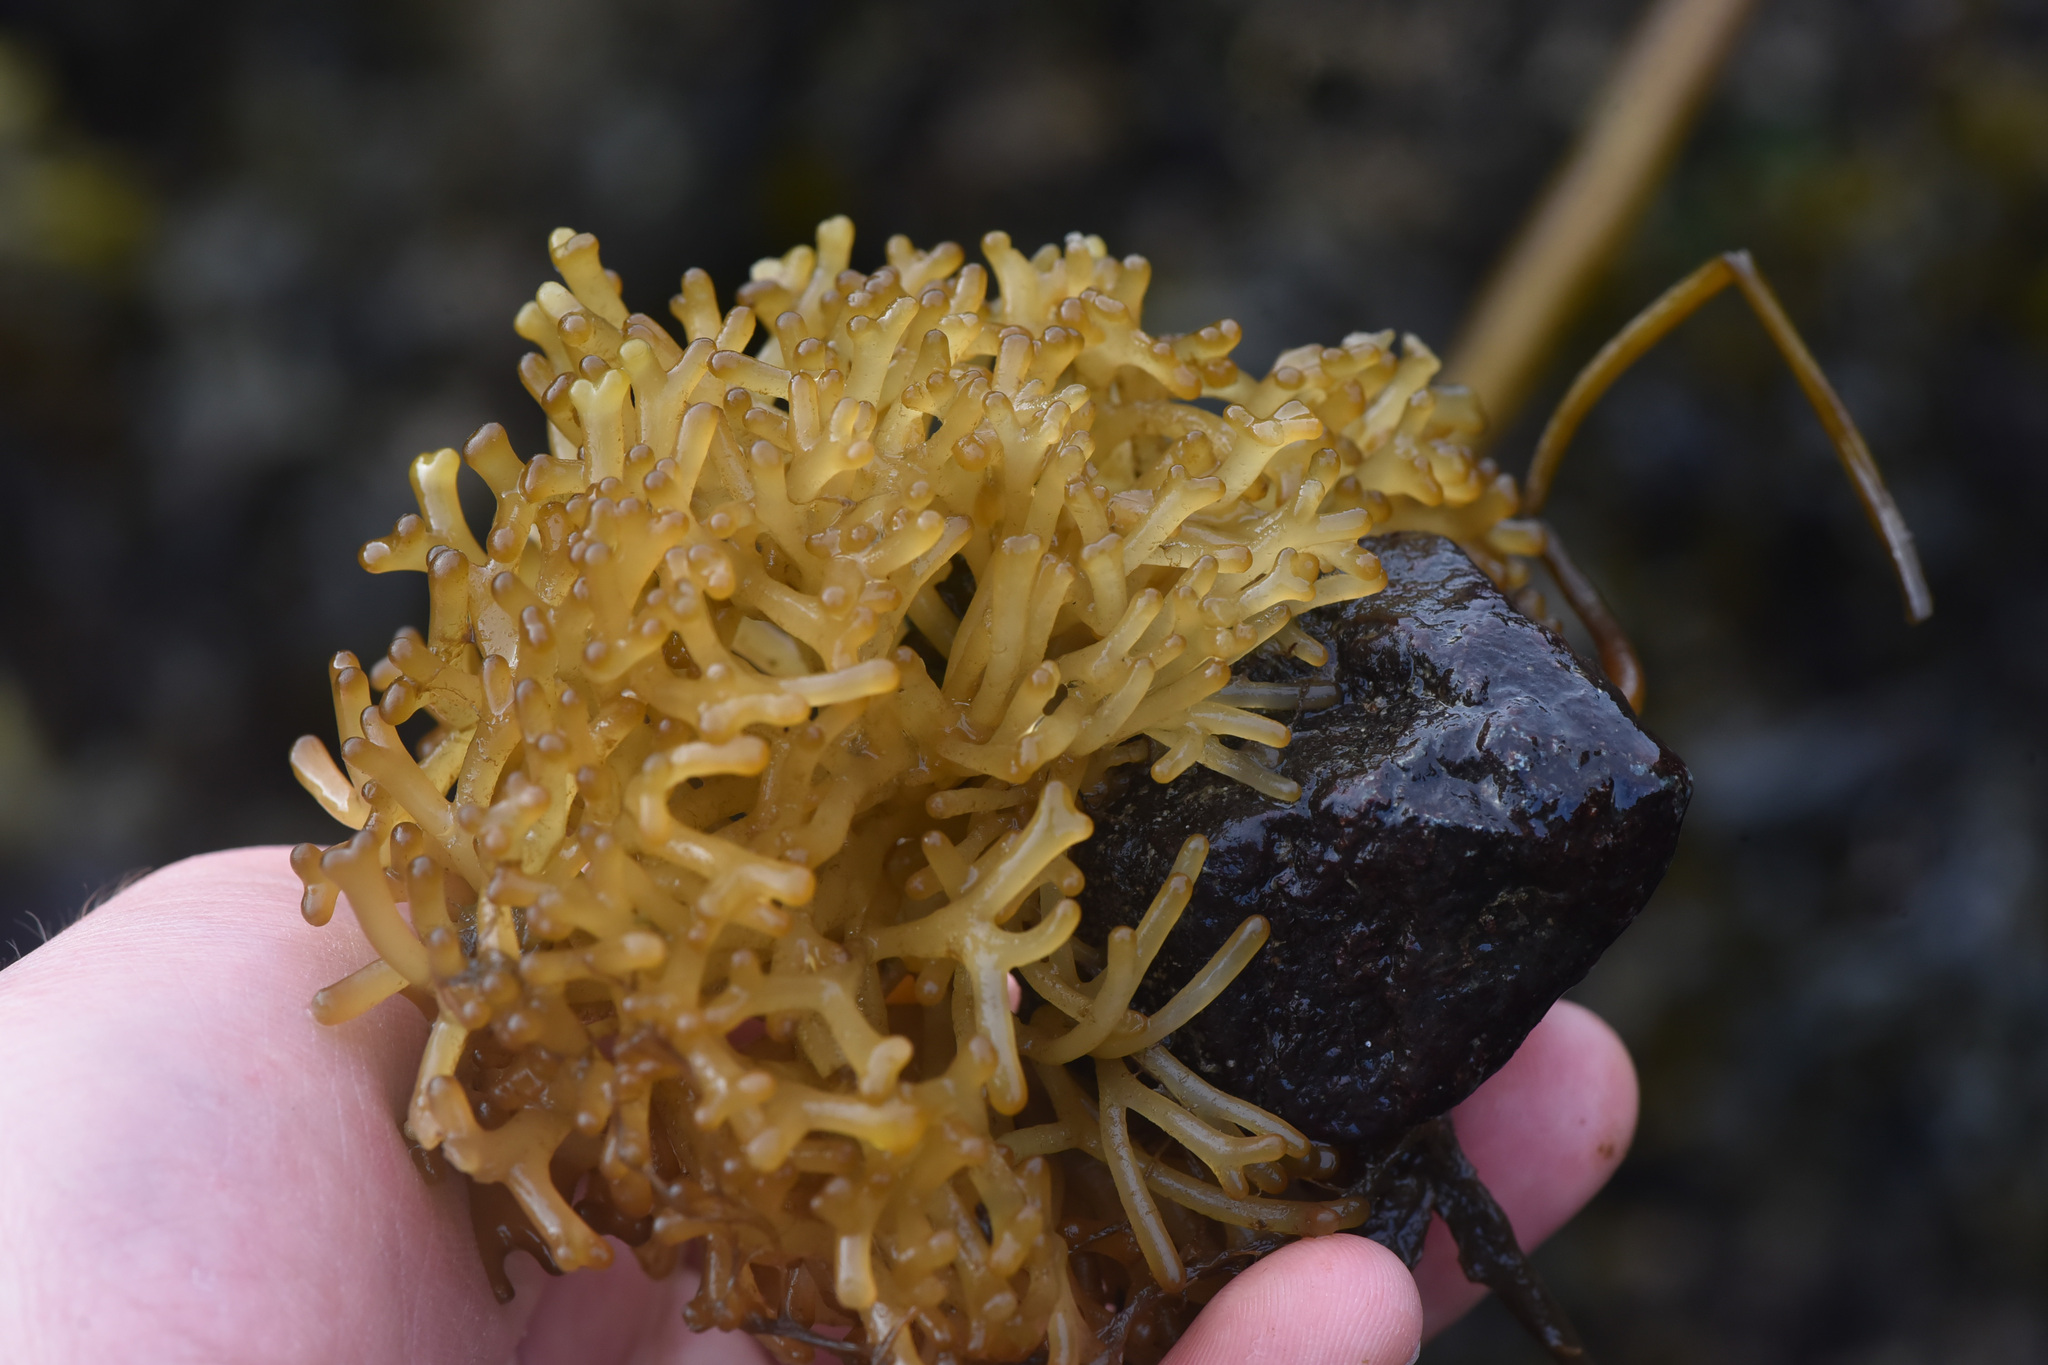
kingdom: Chromista
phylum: Ochrophyta
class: Phaeophyceae
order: Laminariales
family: Laminariaceae
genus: Nereocystis
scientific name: Nereocystis luetkeana
